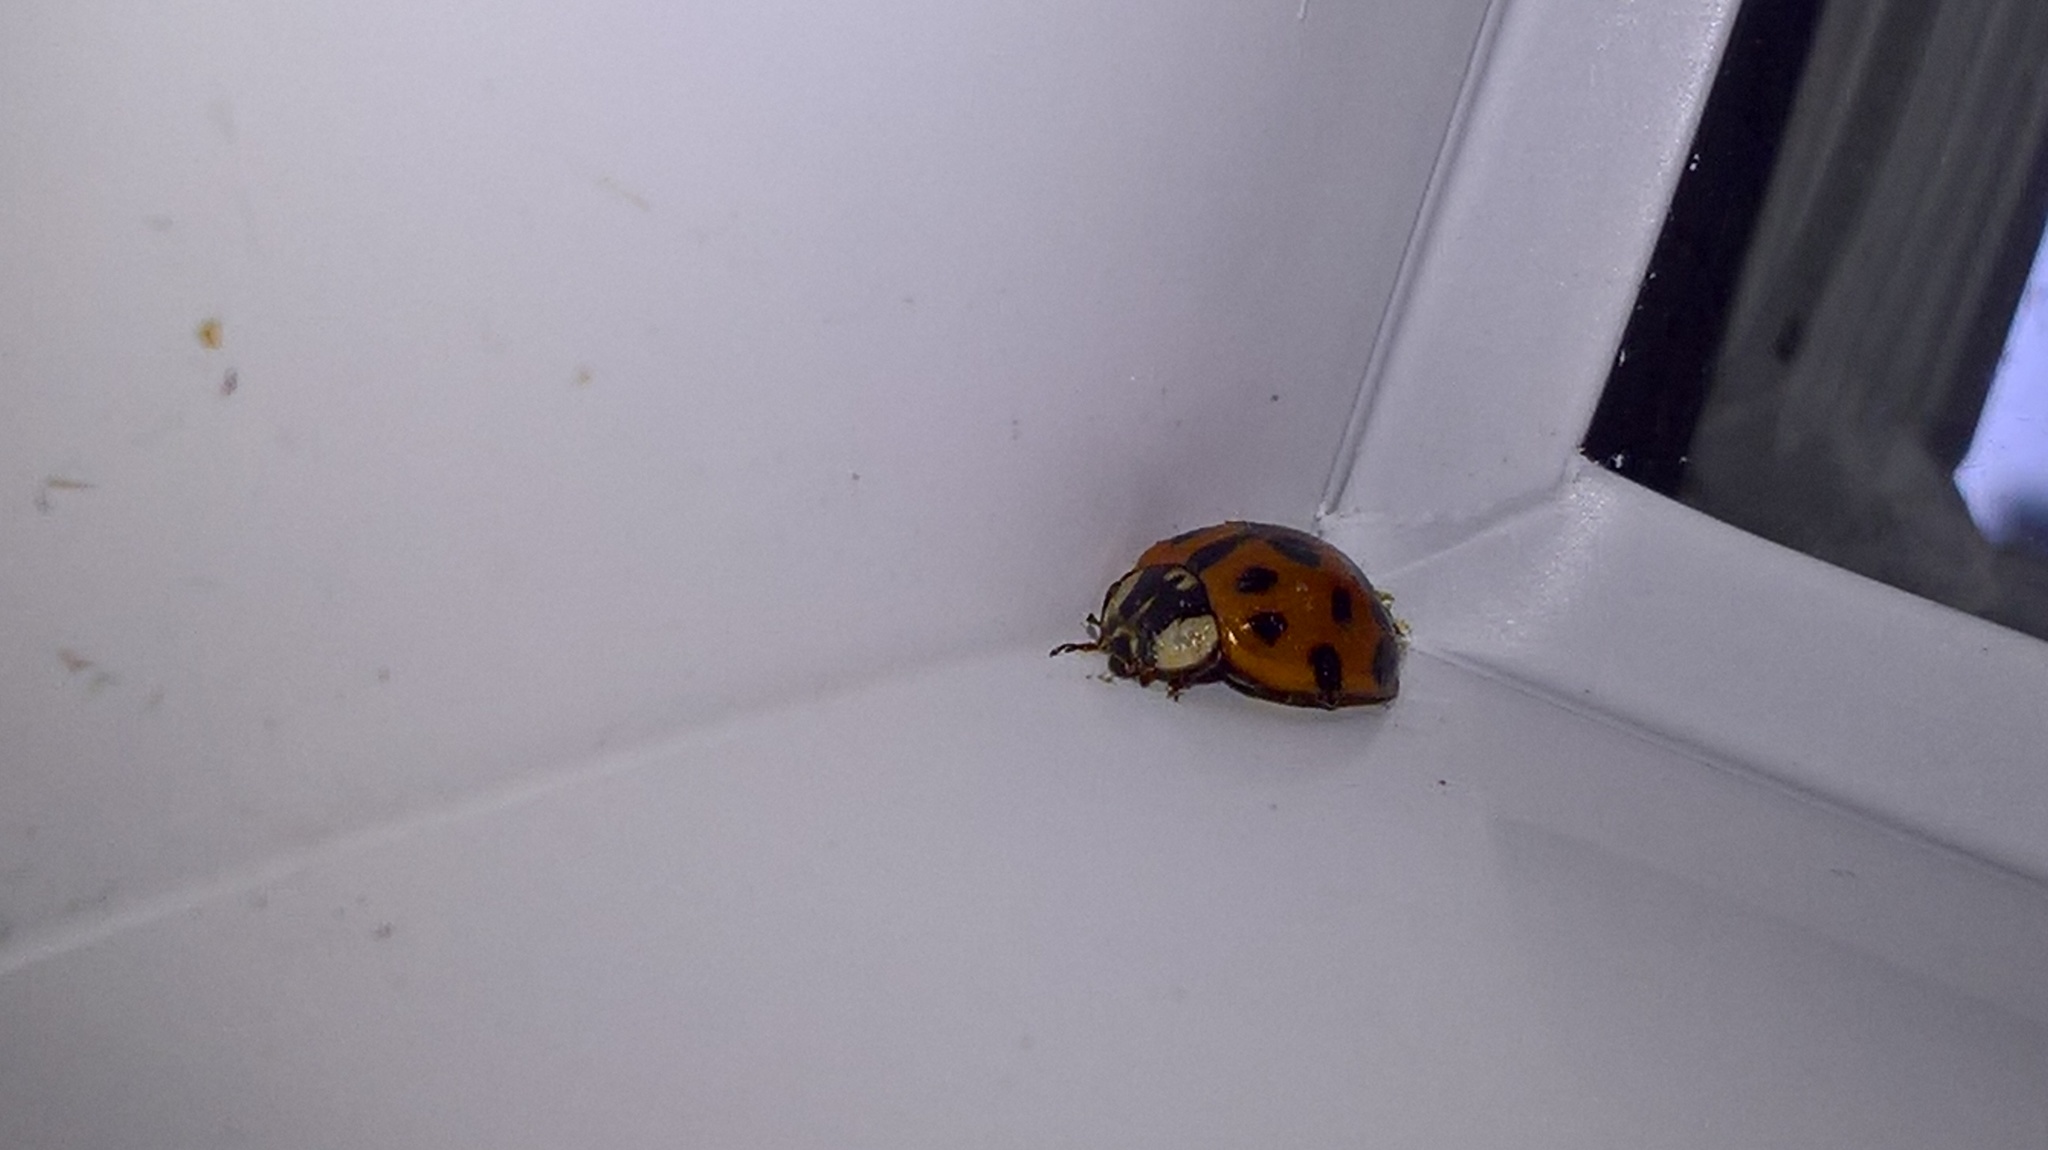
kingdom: Animalia
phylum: Arthropoda
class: Insecta
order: Coleoptera
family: Coccinellidae
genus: Harmonia
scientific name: Harmonia axyridis
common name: Harlequin ladybird
